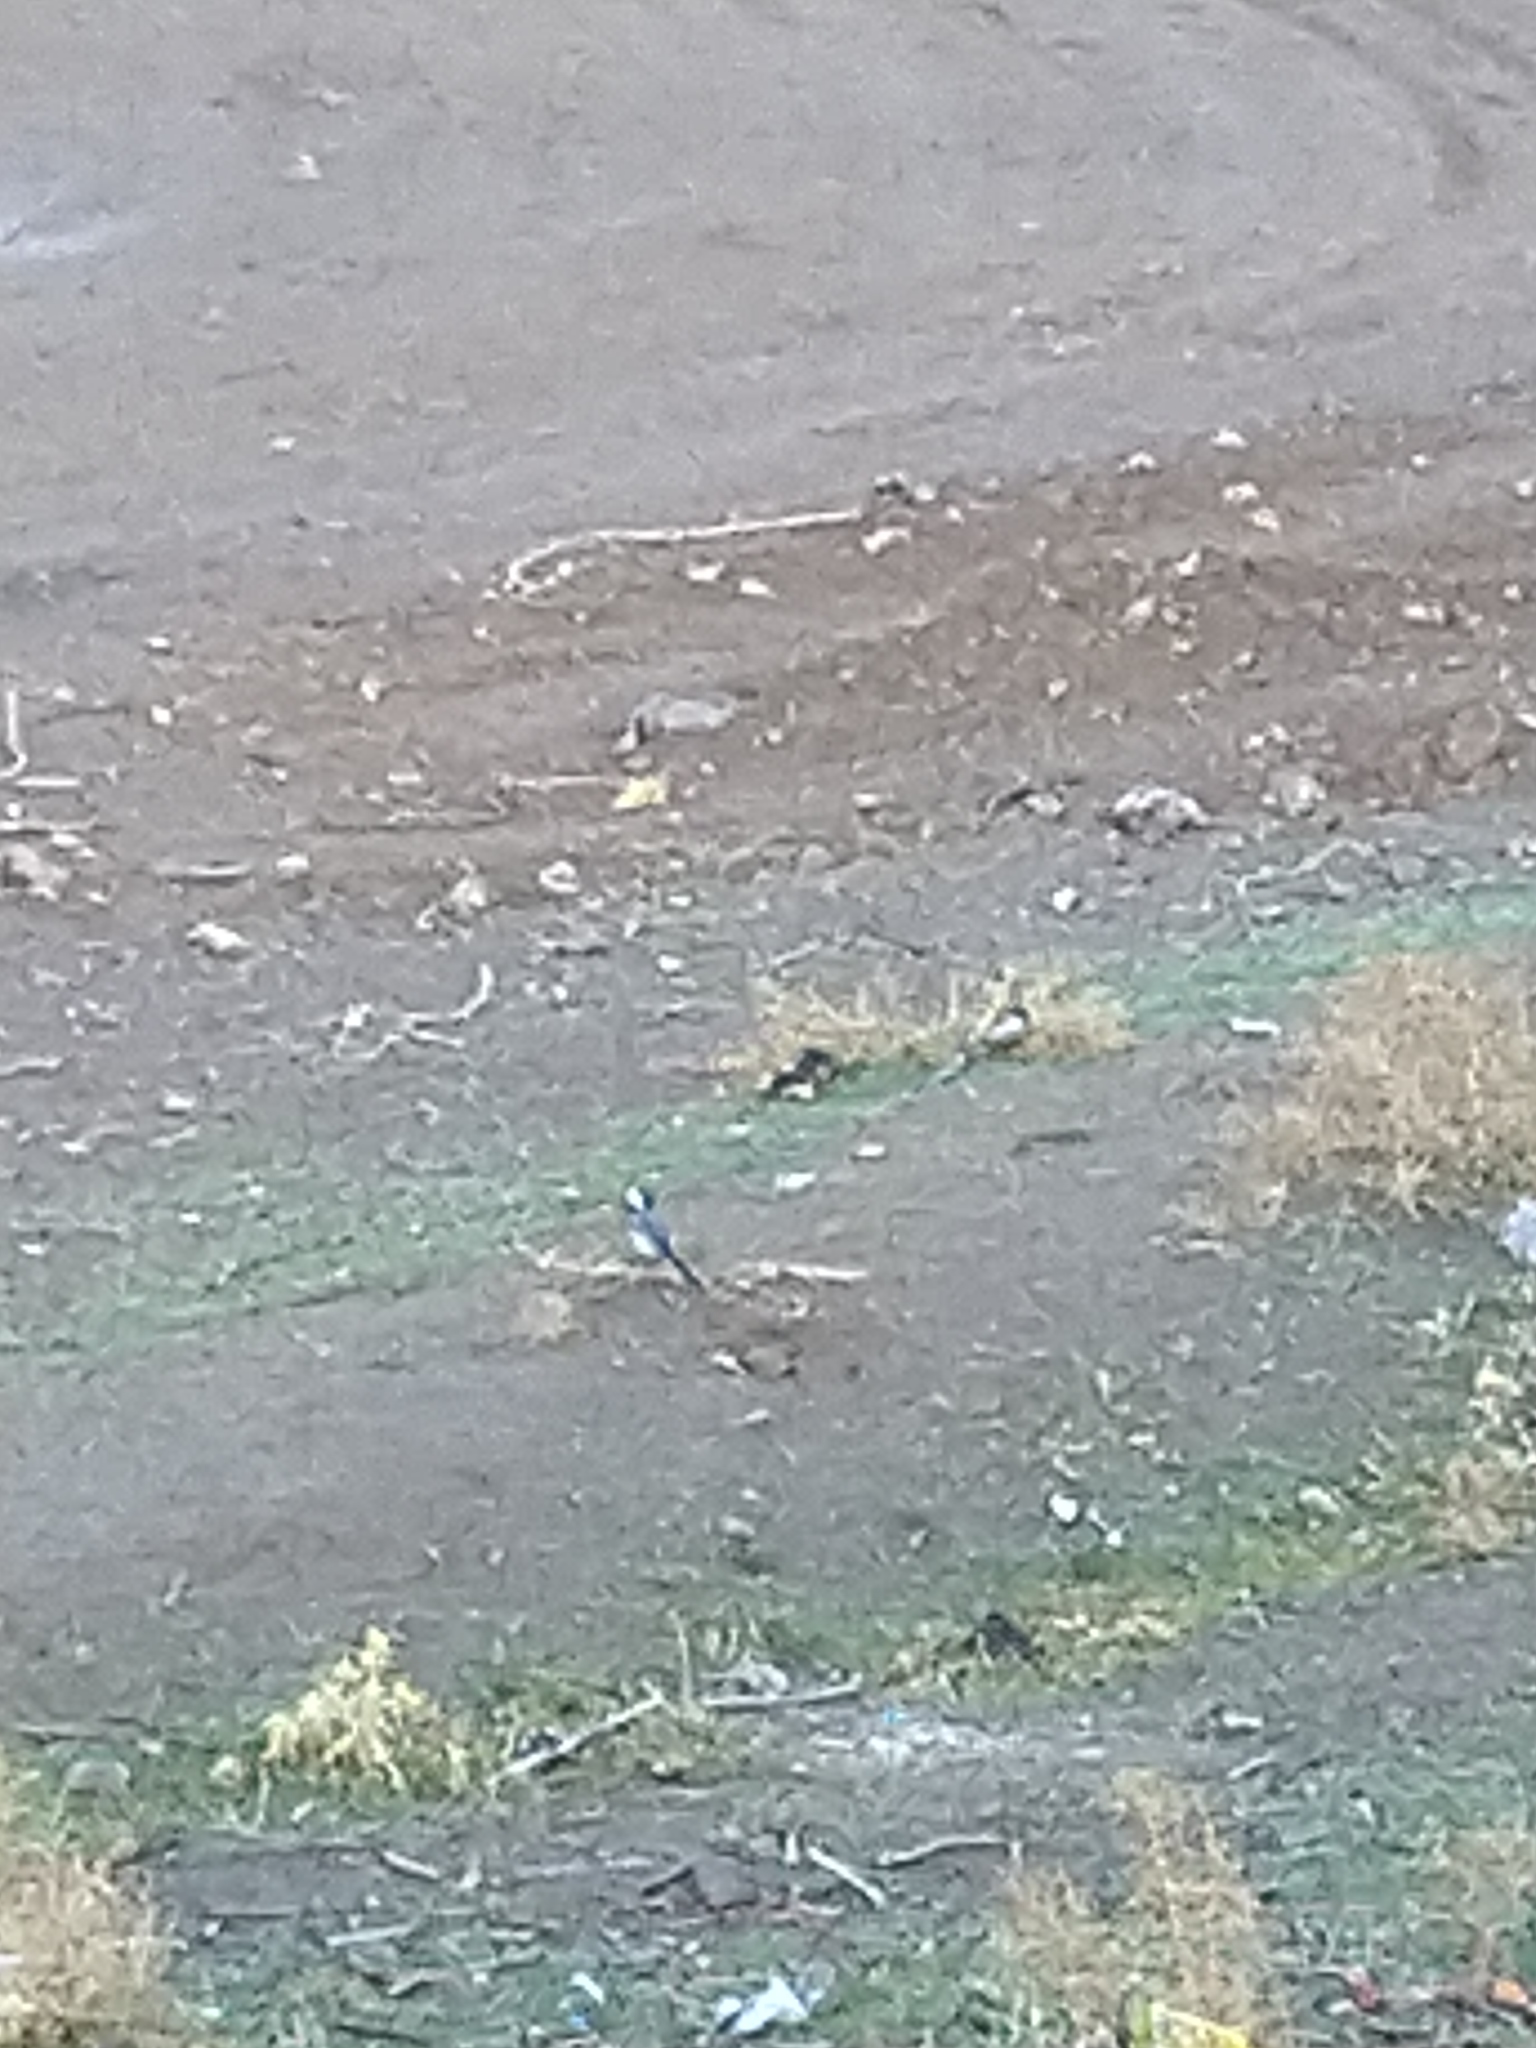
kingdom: Animalia
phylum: Chordata
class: Aves
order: Passeriformes
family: Motacillidae
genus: Motacilla
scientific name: Motacilla alba
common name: White wagtail
